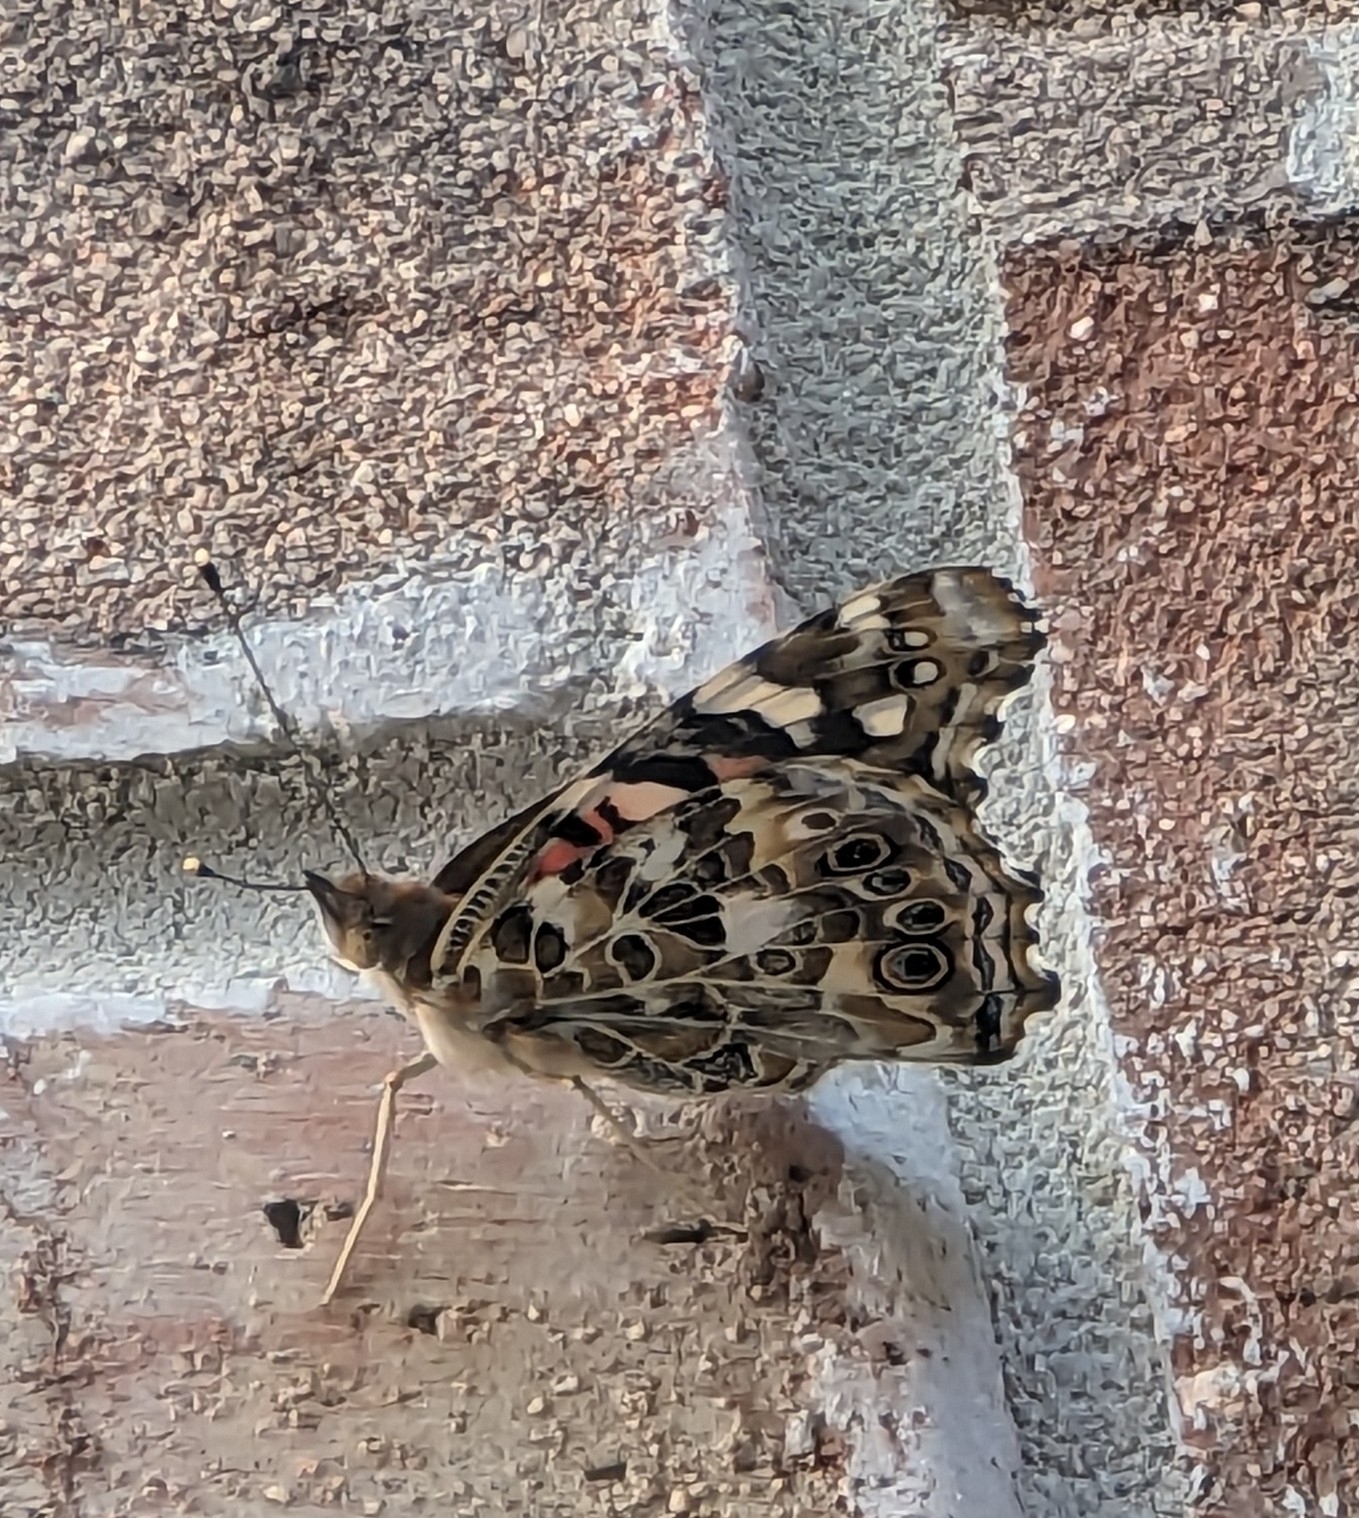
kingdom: Animalia
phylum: Arthropoda
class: Insecta
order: Lepidoptera
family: Nymphalidae
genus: Vanessa
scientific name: Vanessa cardui
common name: Painted lady
